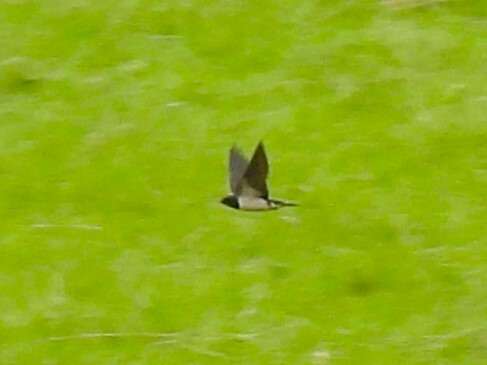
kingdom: Animalia
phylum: Chordata
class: Aves
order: Passeriformes
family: Hirundinidae
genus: Hirundo
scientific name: Hirundo rustica
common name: Barn swallow
